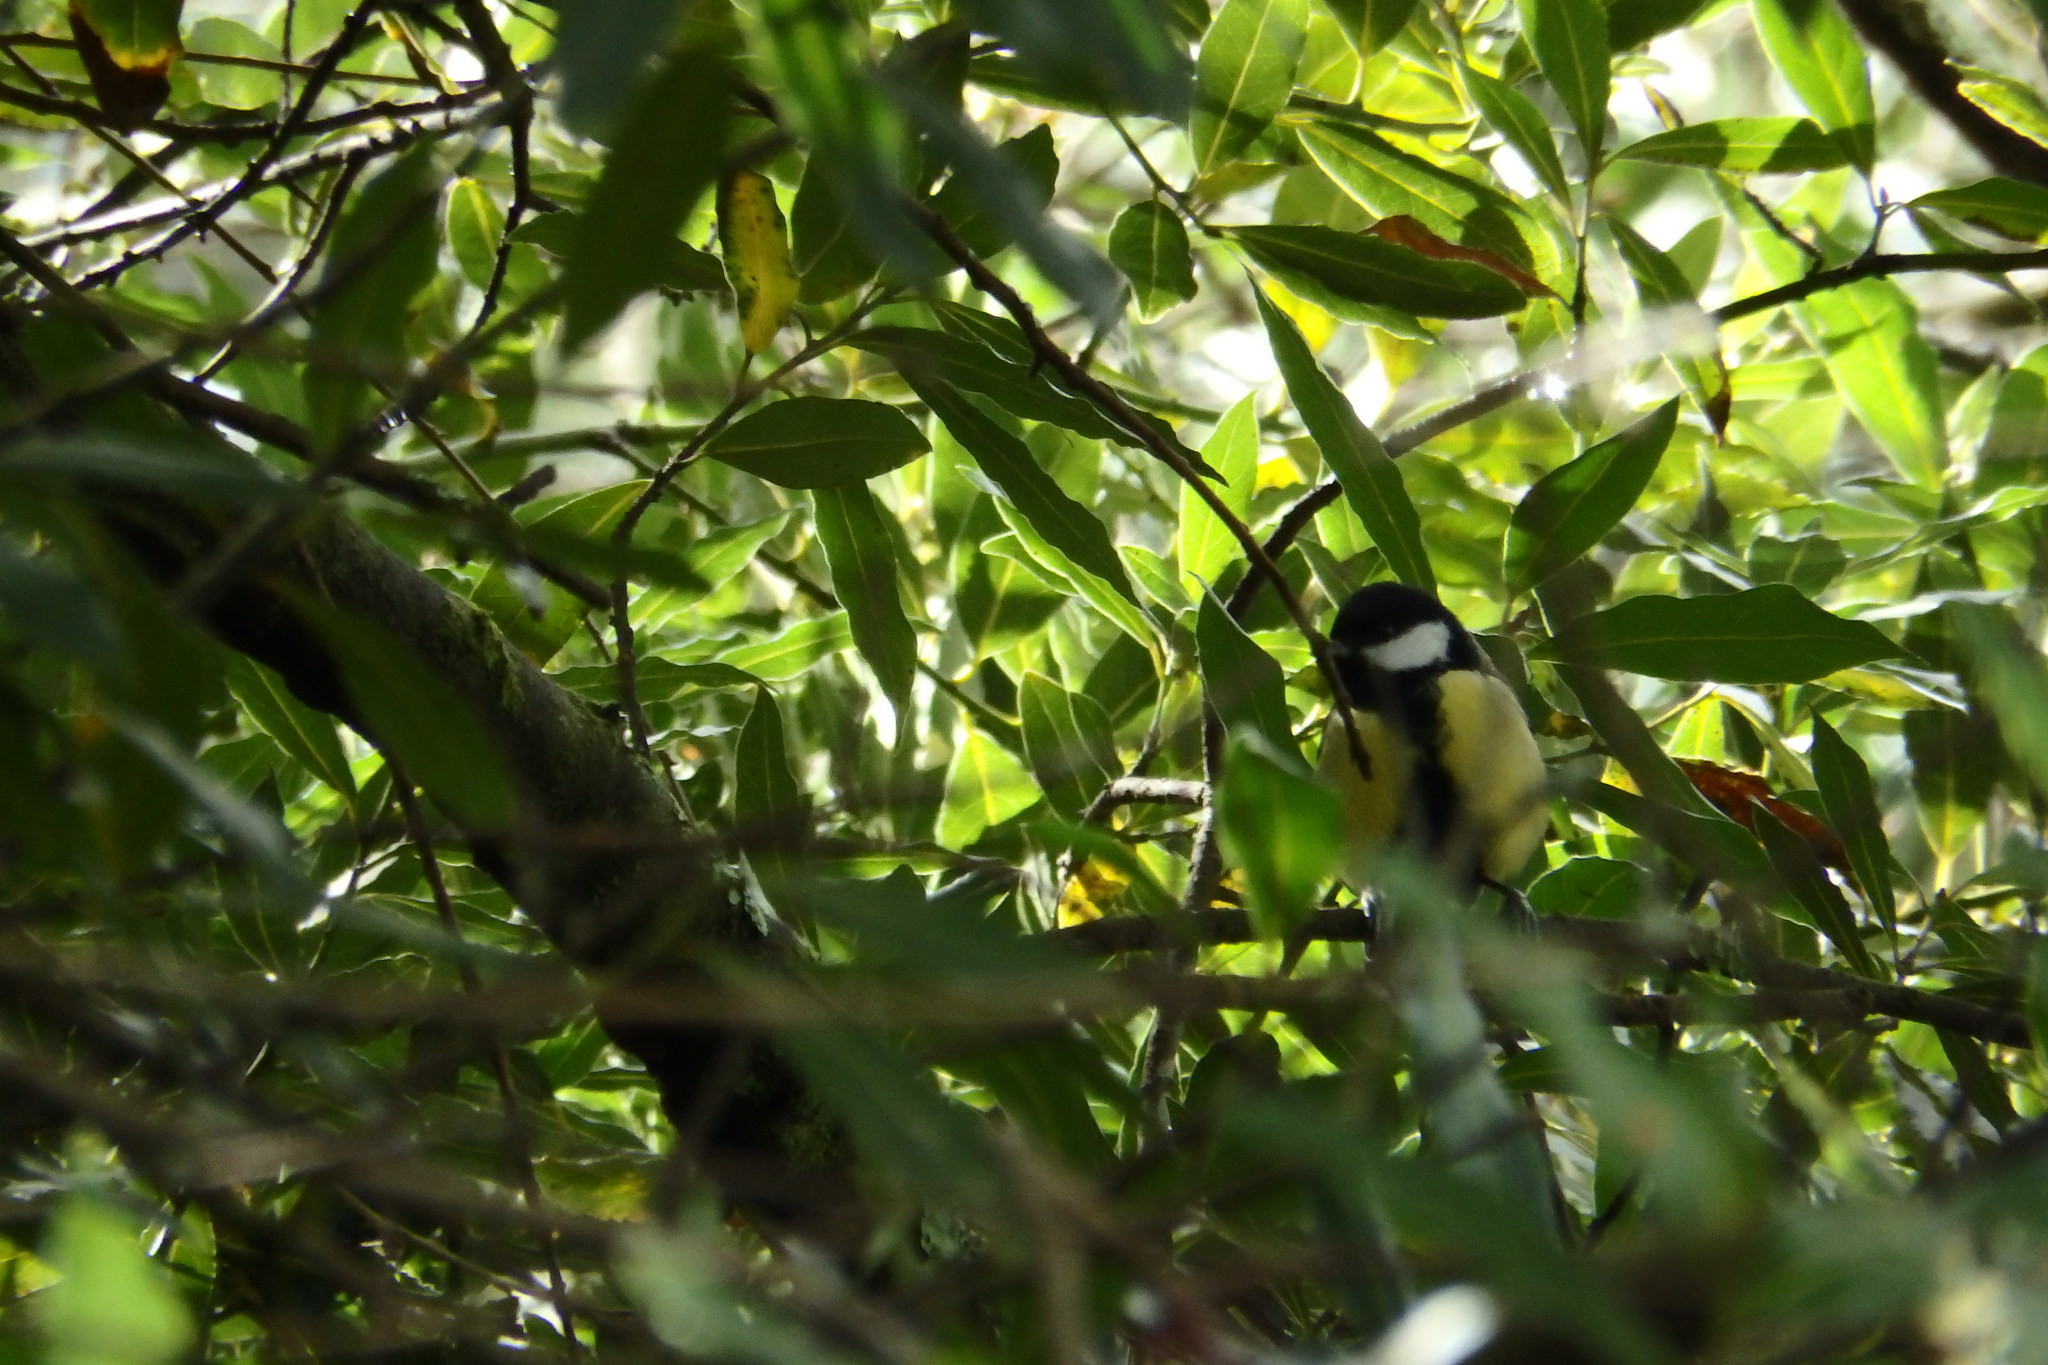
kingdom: Animalia
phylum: Chordata
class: Aves
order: Passeriformes
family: Paridae
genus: Parus
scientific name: Parus major
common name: Great tit
